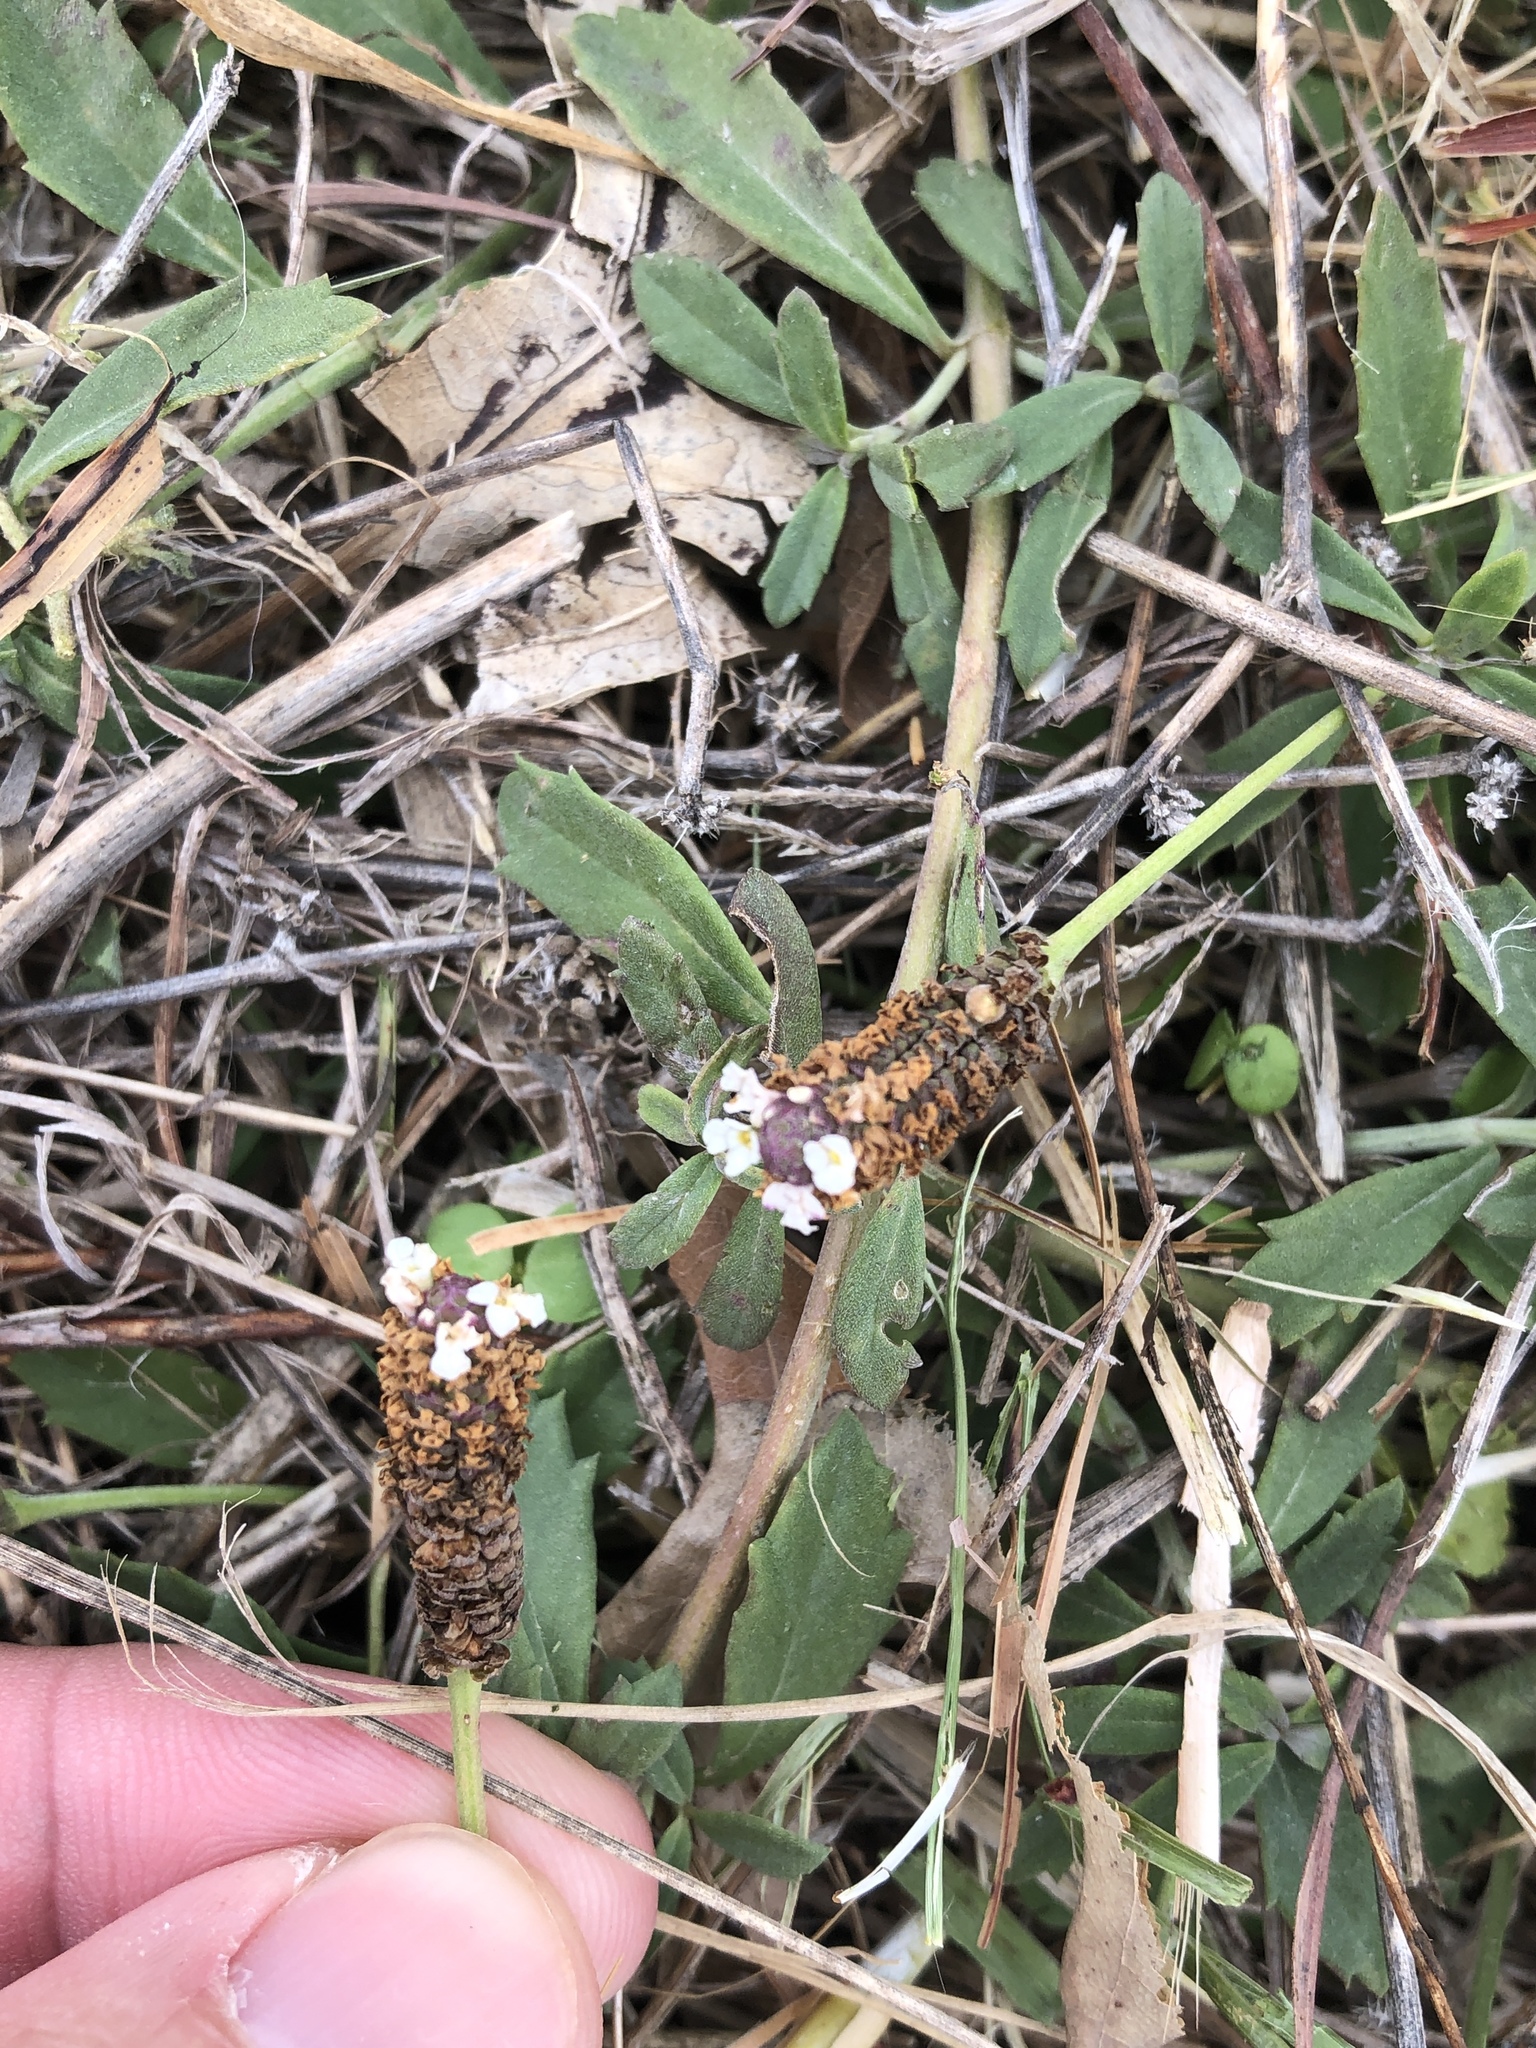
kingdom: Plantae
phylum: Tracheophyta
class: Magnoliopsida
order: Lamiales
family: Verbenaceae
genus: Phyla
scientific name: Phyla nodiflora
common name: Frogfruit
